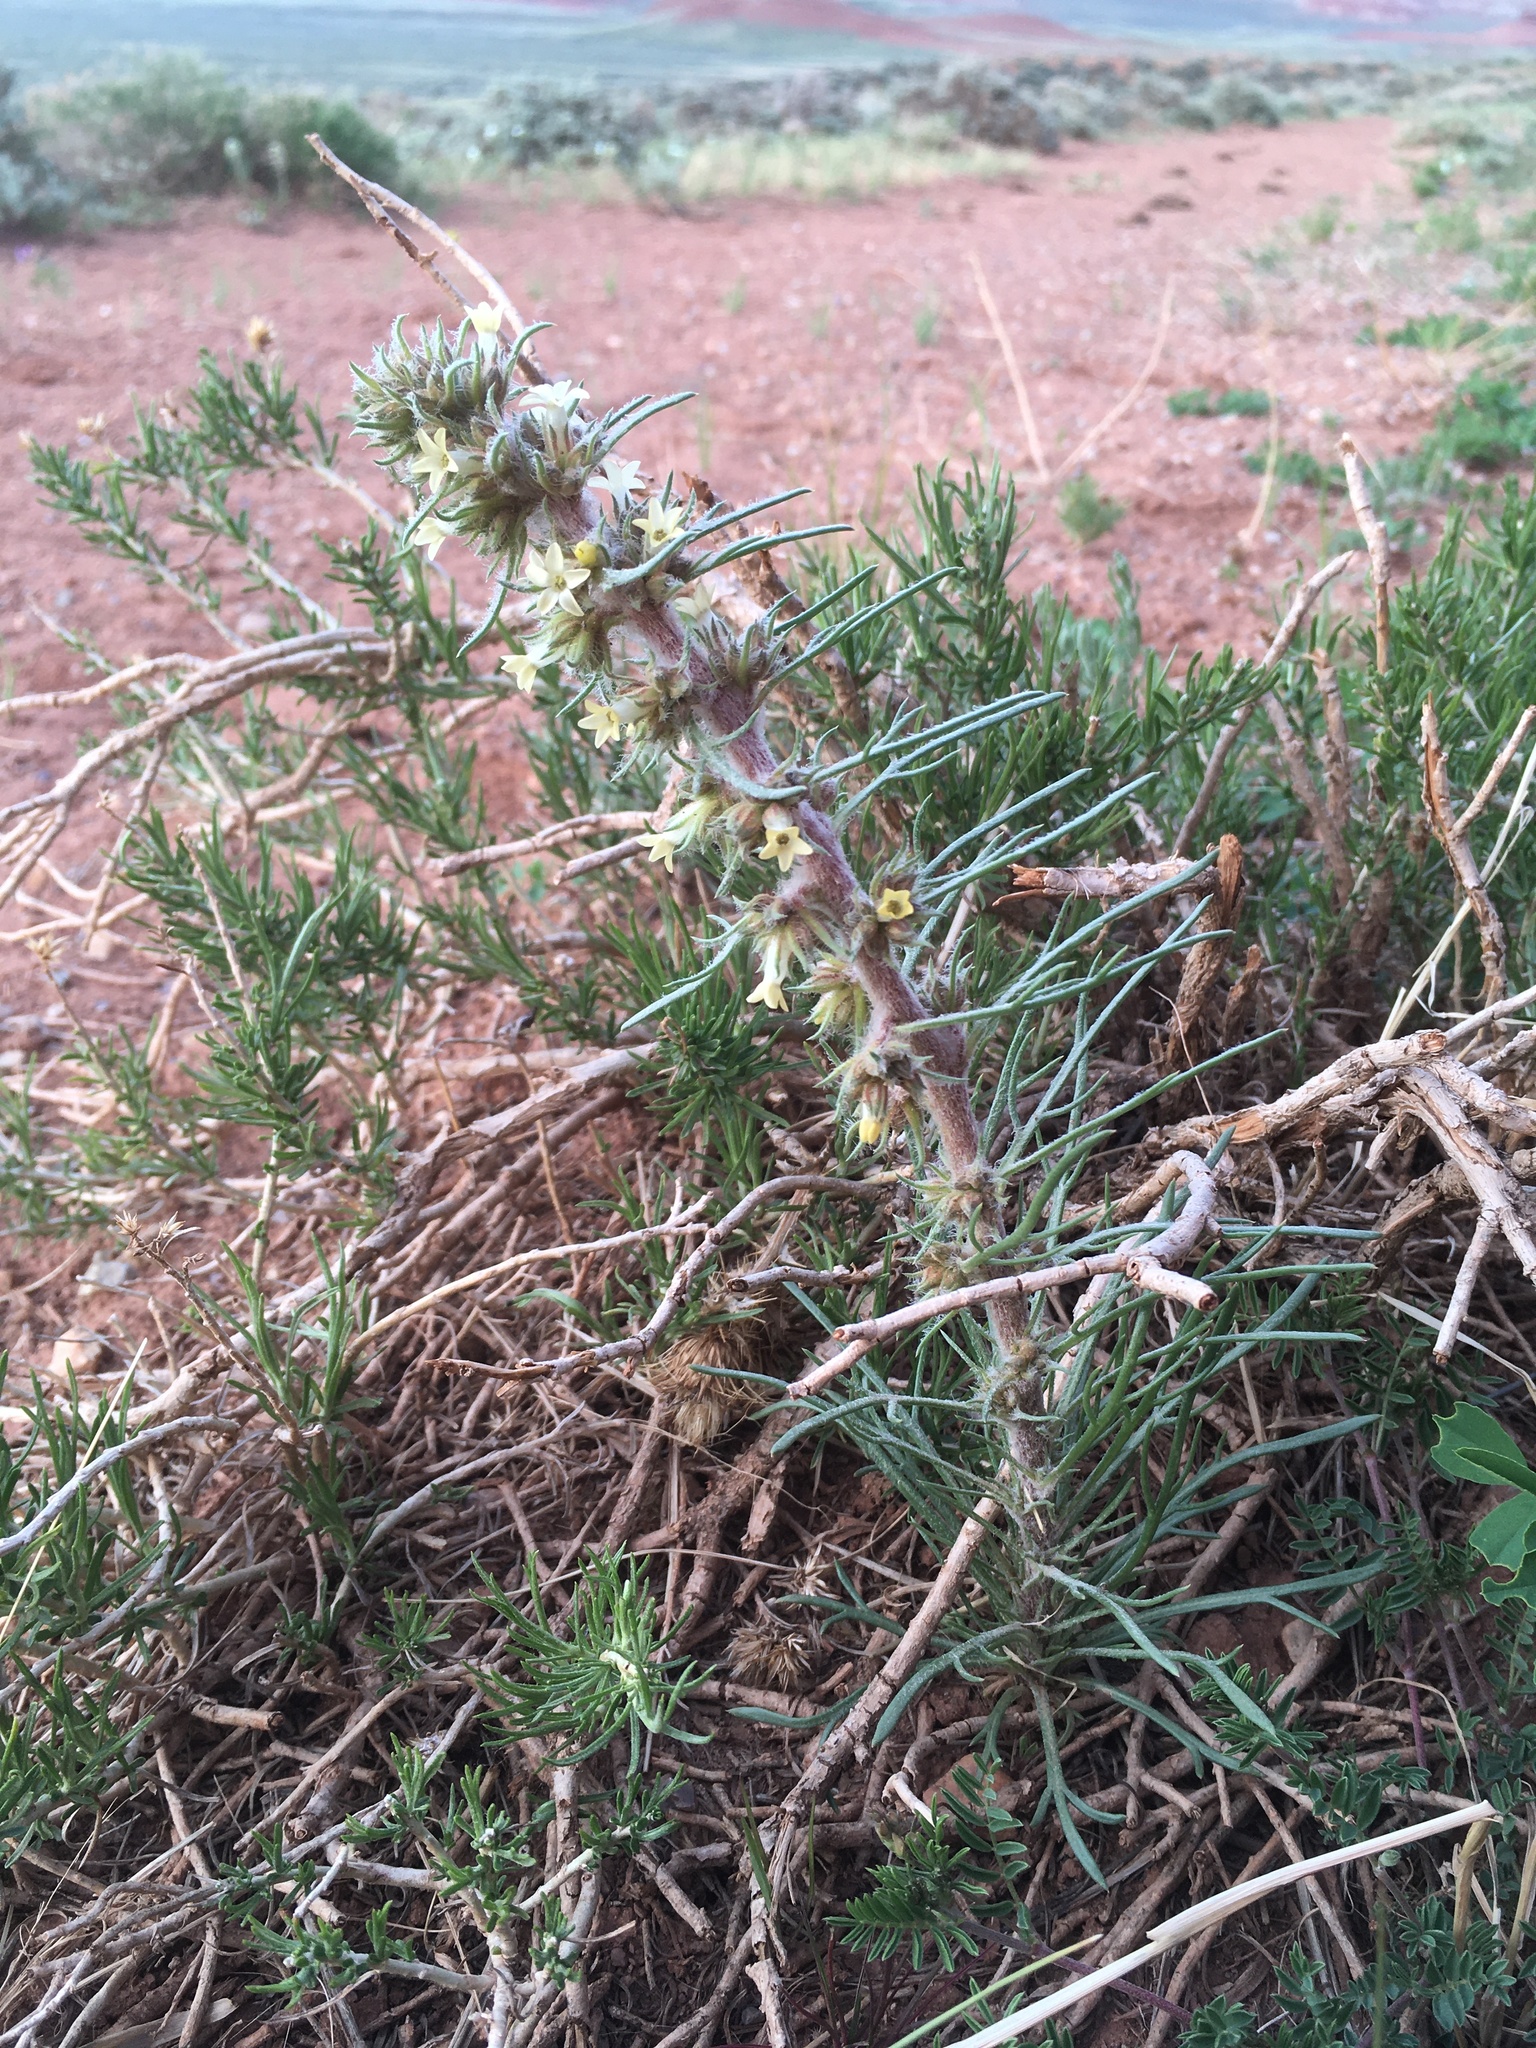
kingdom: Plantae
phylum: Tracheophyta
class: Magnoliopsida
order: Ericales
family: Polemoniaceae
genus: Ipomopsis
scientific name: Ipomopsis spicata
